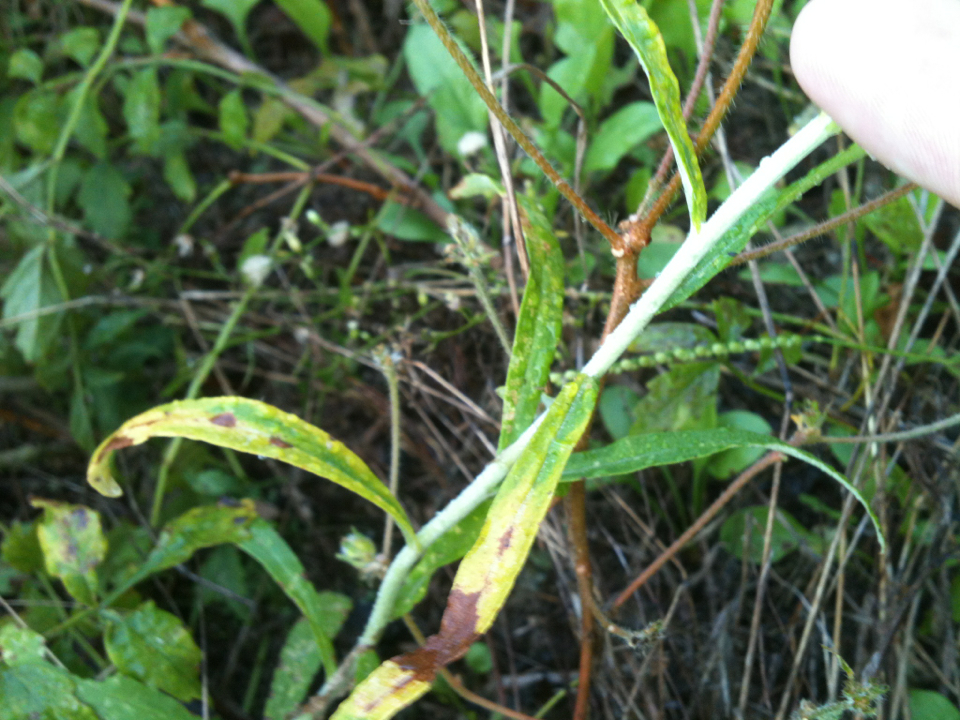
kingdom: Plantae
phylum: Tracheophyta
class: Magnoliopsida
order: Asterales
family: Asteraceae
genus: Pseudognaphalium
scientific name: Pseudognaphalium obtusifolium
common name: Eastern rabbit-tobacco
